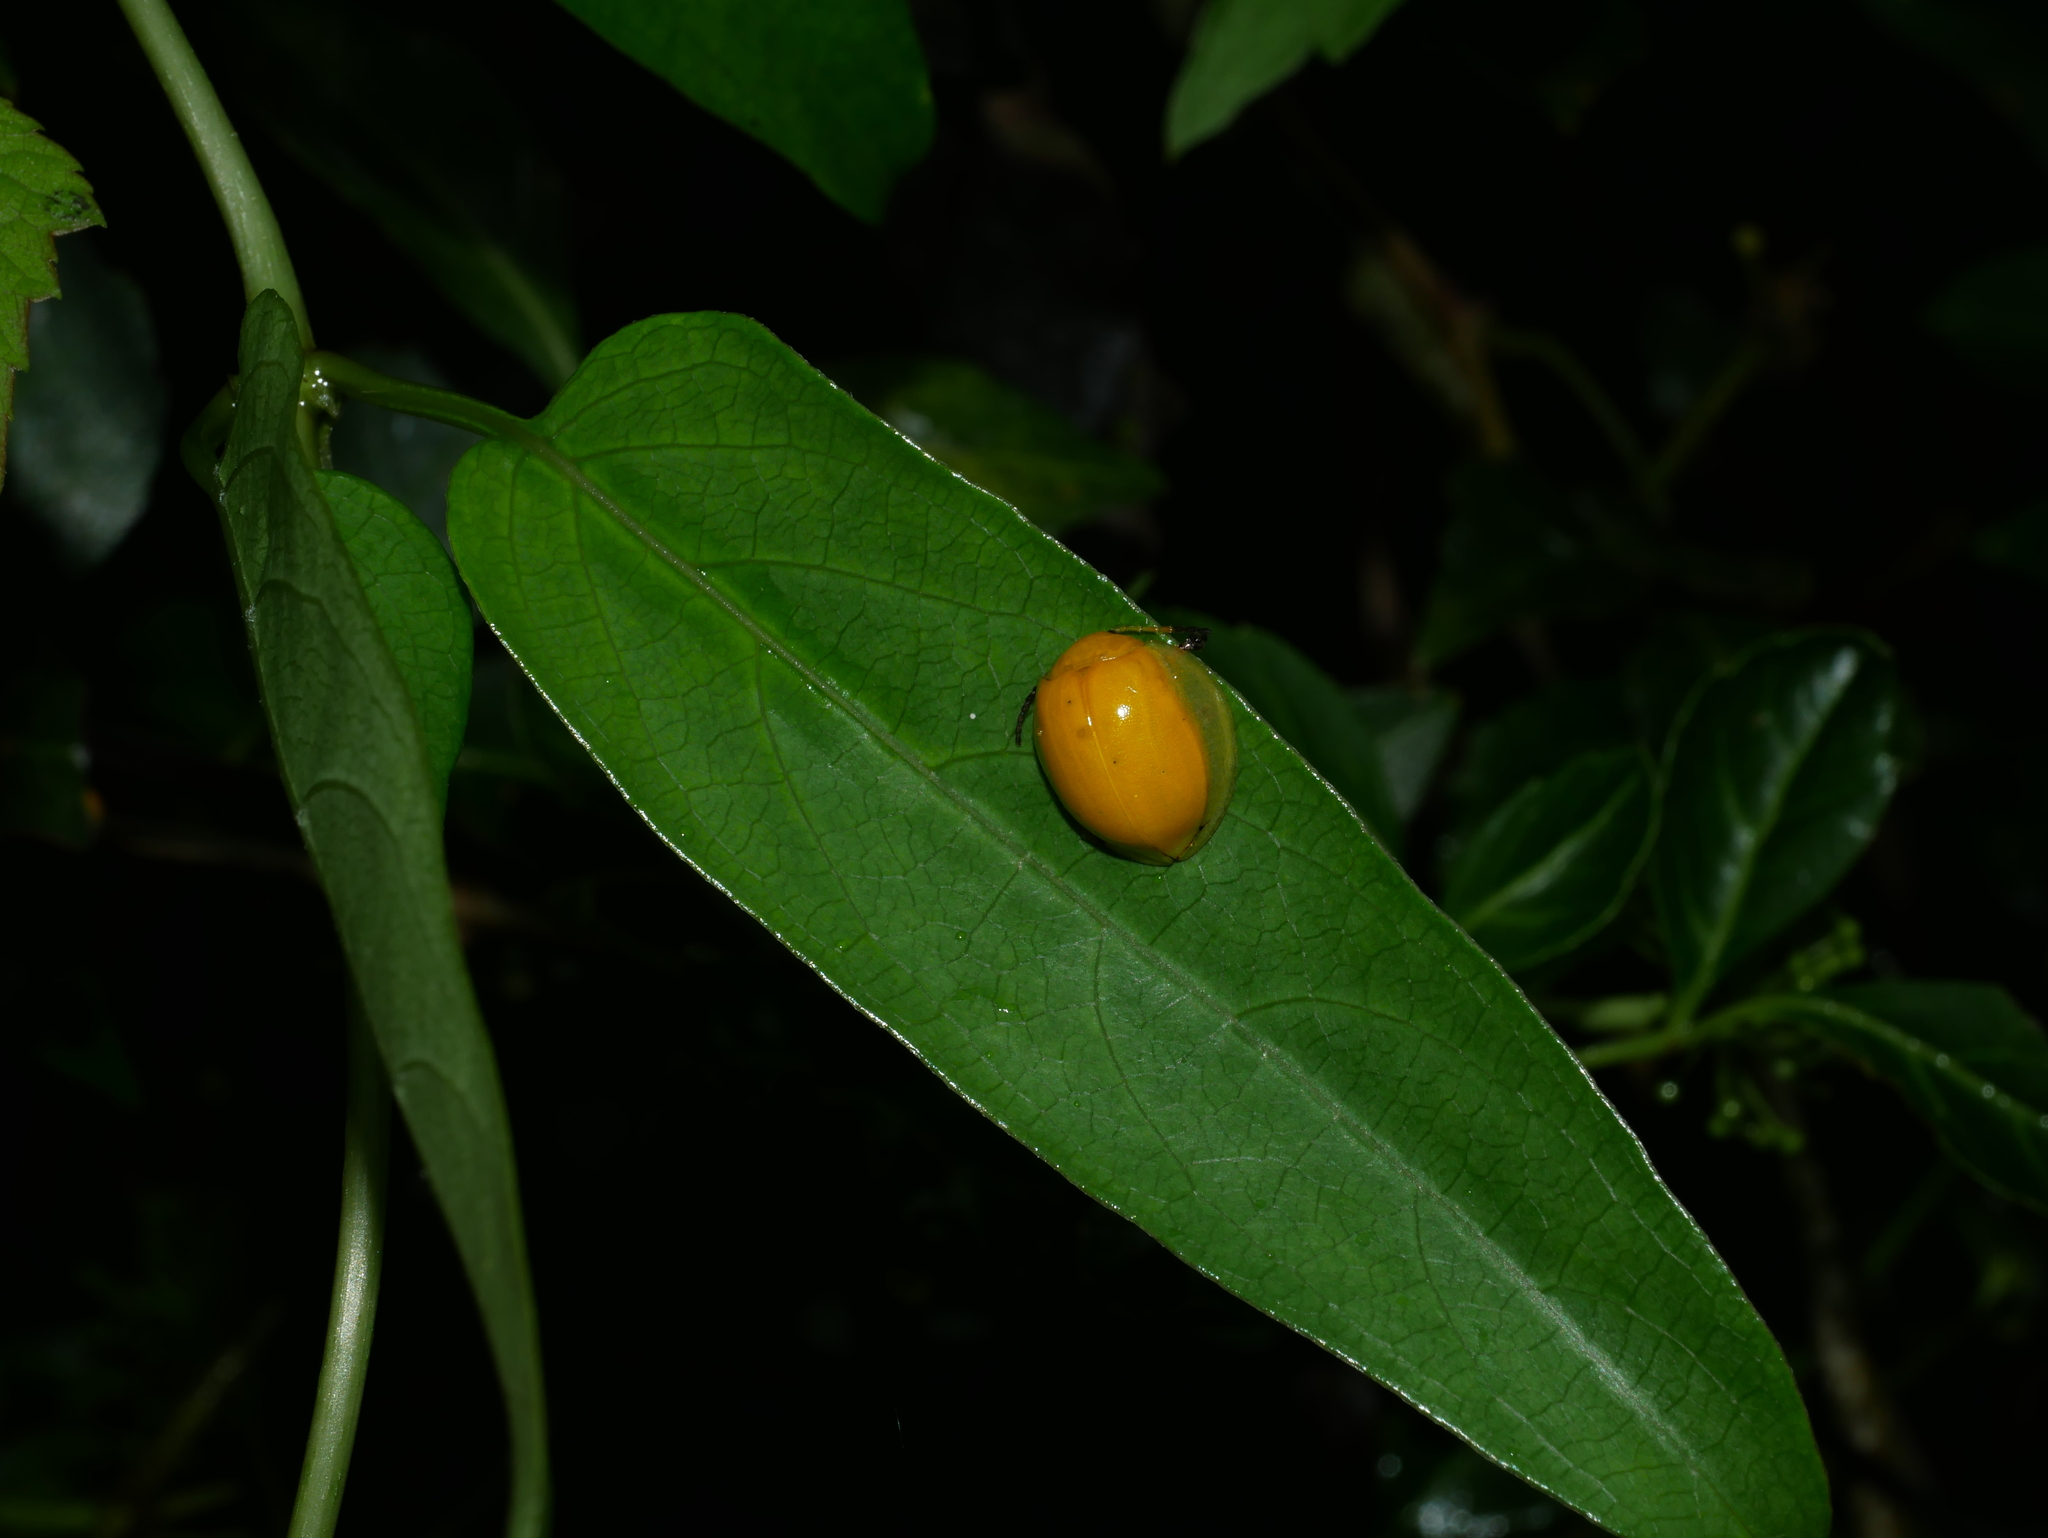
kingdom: Animalia
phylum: Arthropoda
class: Insecta
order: Coleoptera
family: Chrysomelidae
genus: Oides
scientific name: Oides epipleuralis
